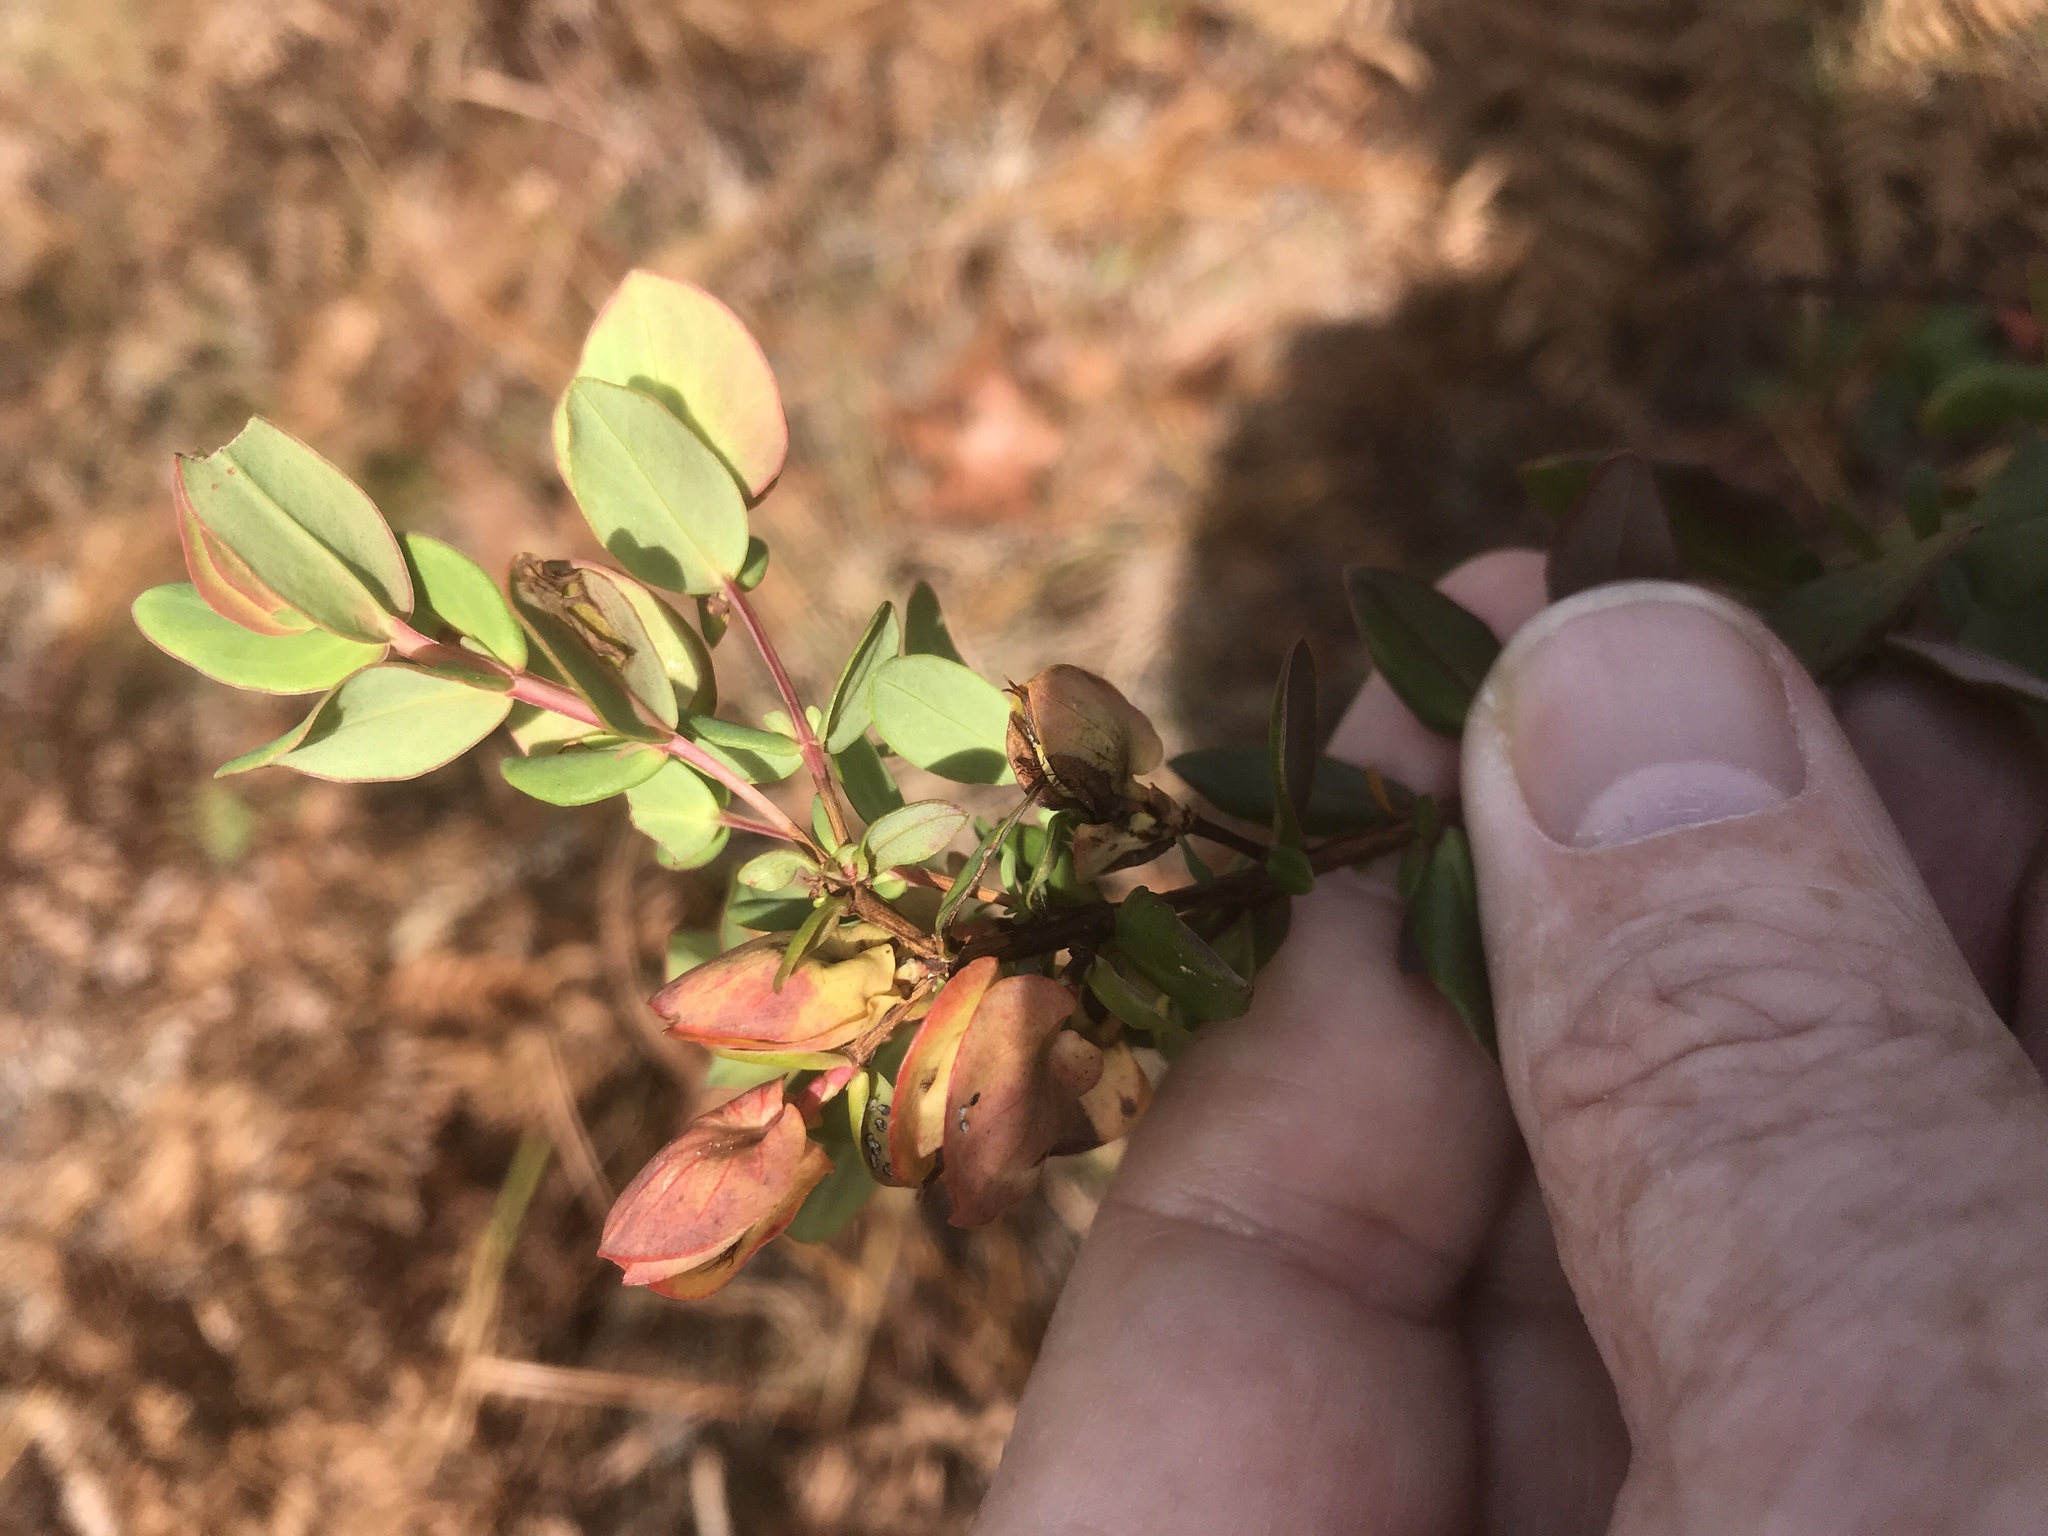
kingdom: Plantae
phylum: Tracheophyta
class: Magnoliopsida
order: Malpighiales
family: Hypericaceae
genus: Hypericum
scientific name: Hypericum crux-andreae
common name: St.-peter's-wort
